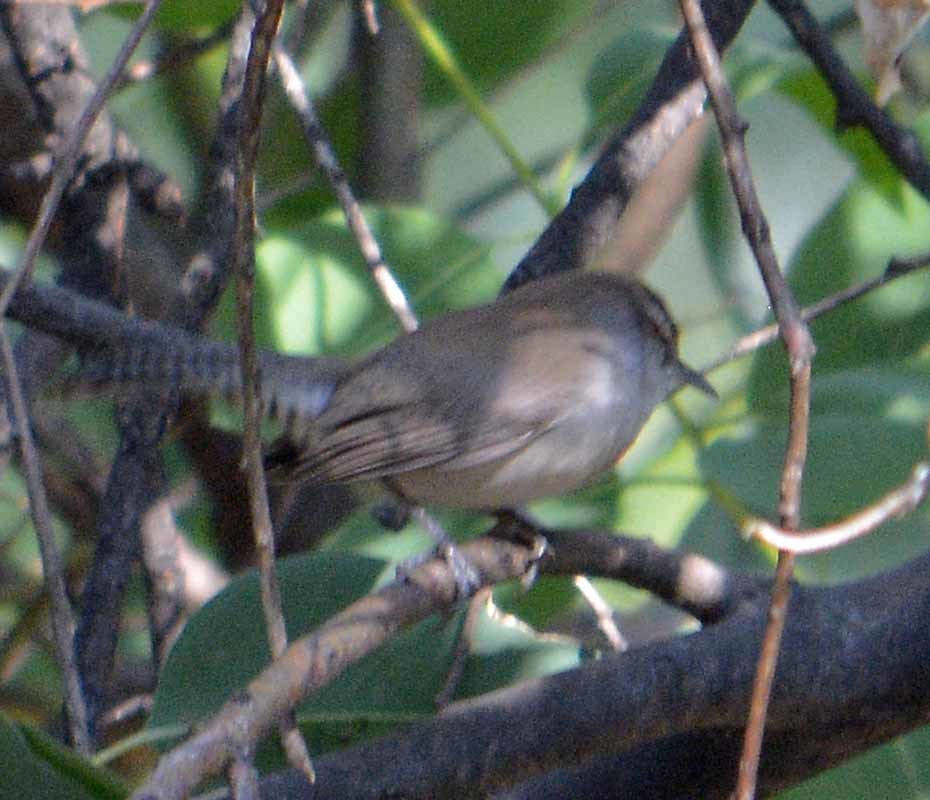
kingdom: Animalia
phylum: Chordata
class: Aves
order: Passeriformes
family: Troglodytidae
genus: Thryomanes
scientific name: Thryomanes bewickii
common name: Bewick's wren
